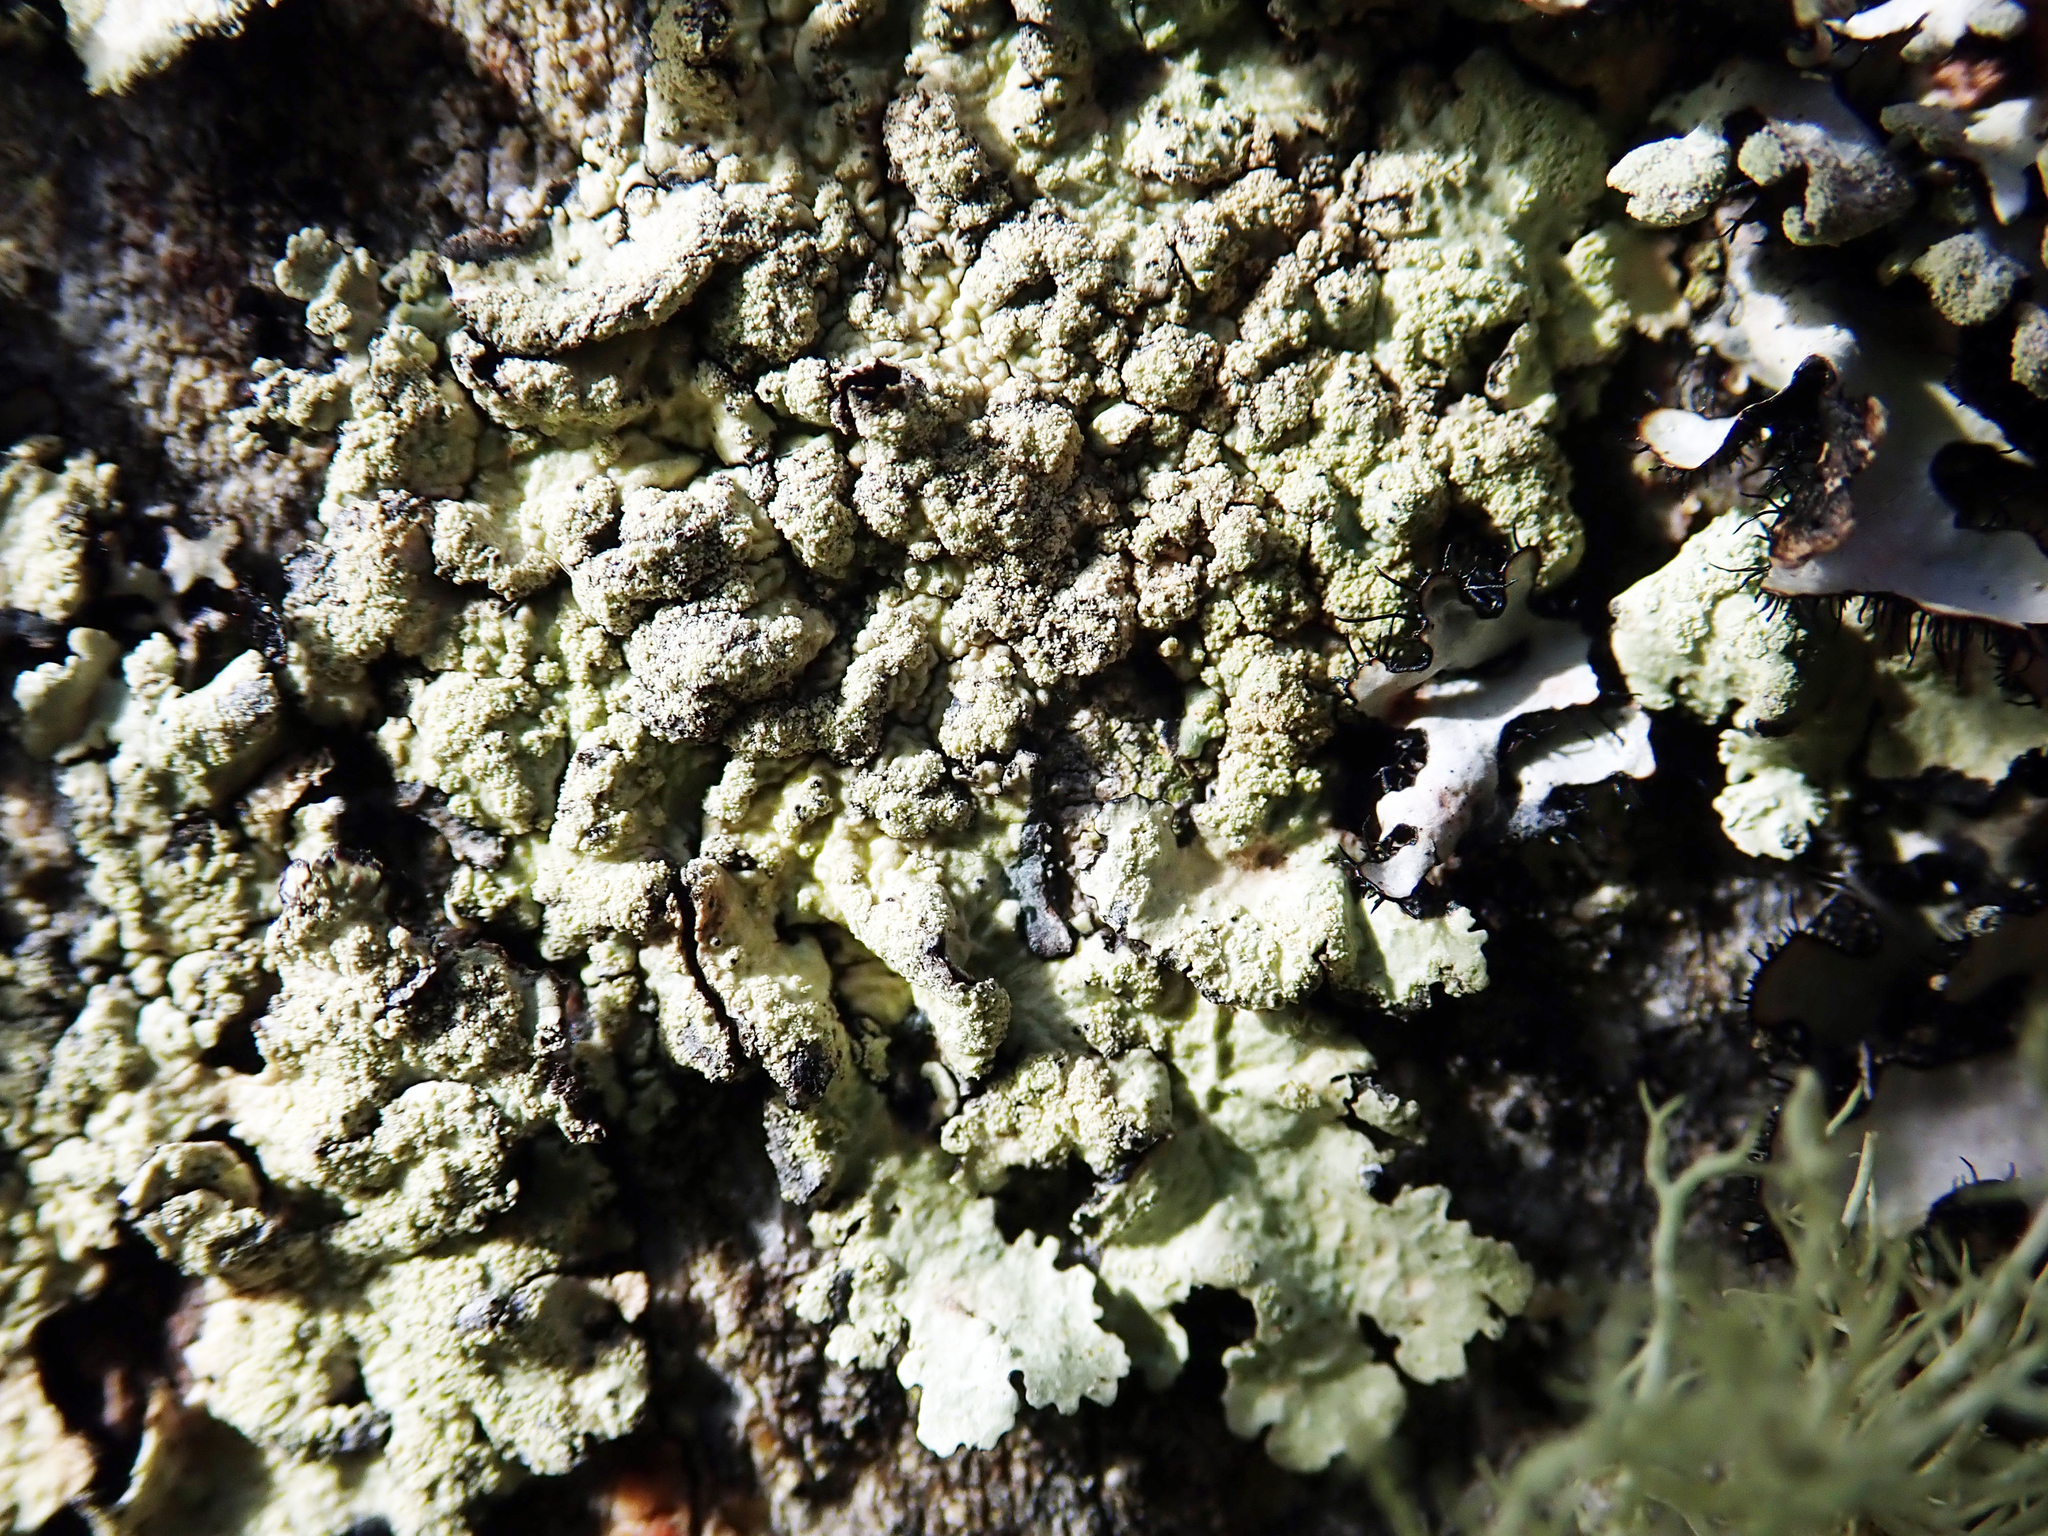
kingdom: Fungi
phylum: Ascomycota
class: Lecanoromycetes
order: Lecanorales
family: Parmeliaceae
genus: Flavoparmelia
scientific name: Flavoparmelia haysomii
